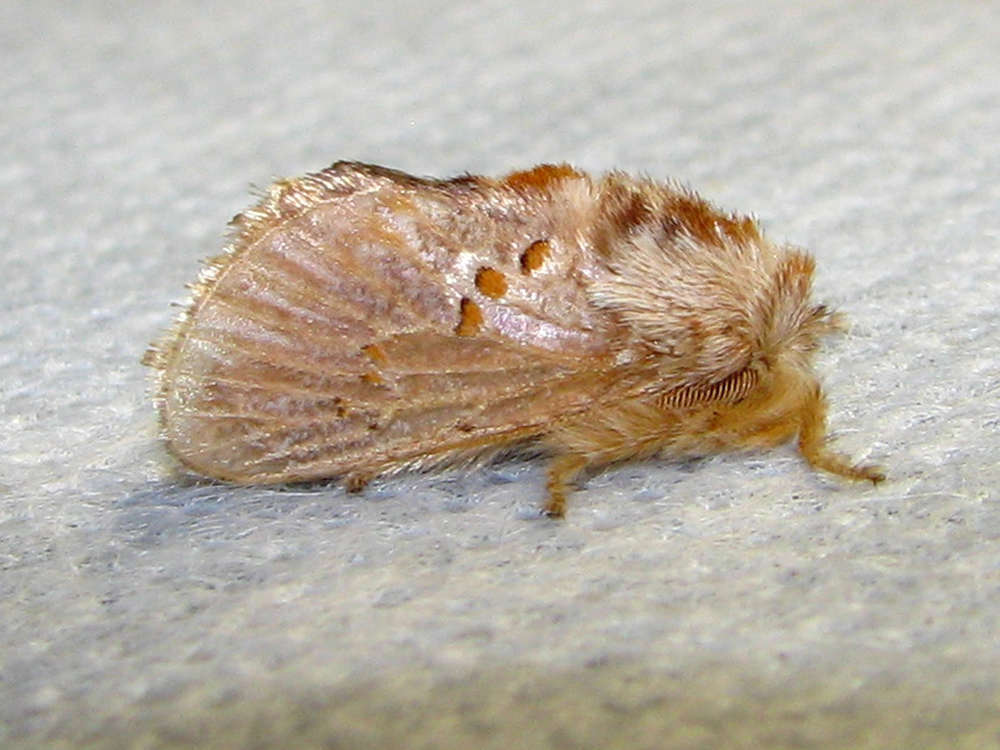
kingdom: Animalia
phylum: Arthropoda
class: Insecta
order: Lepidoptera
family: Limacodidae
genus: Pseudanapaea
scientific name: Pseudanapaea transvestita
